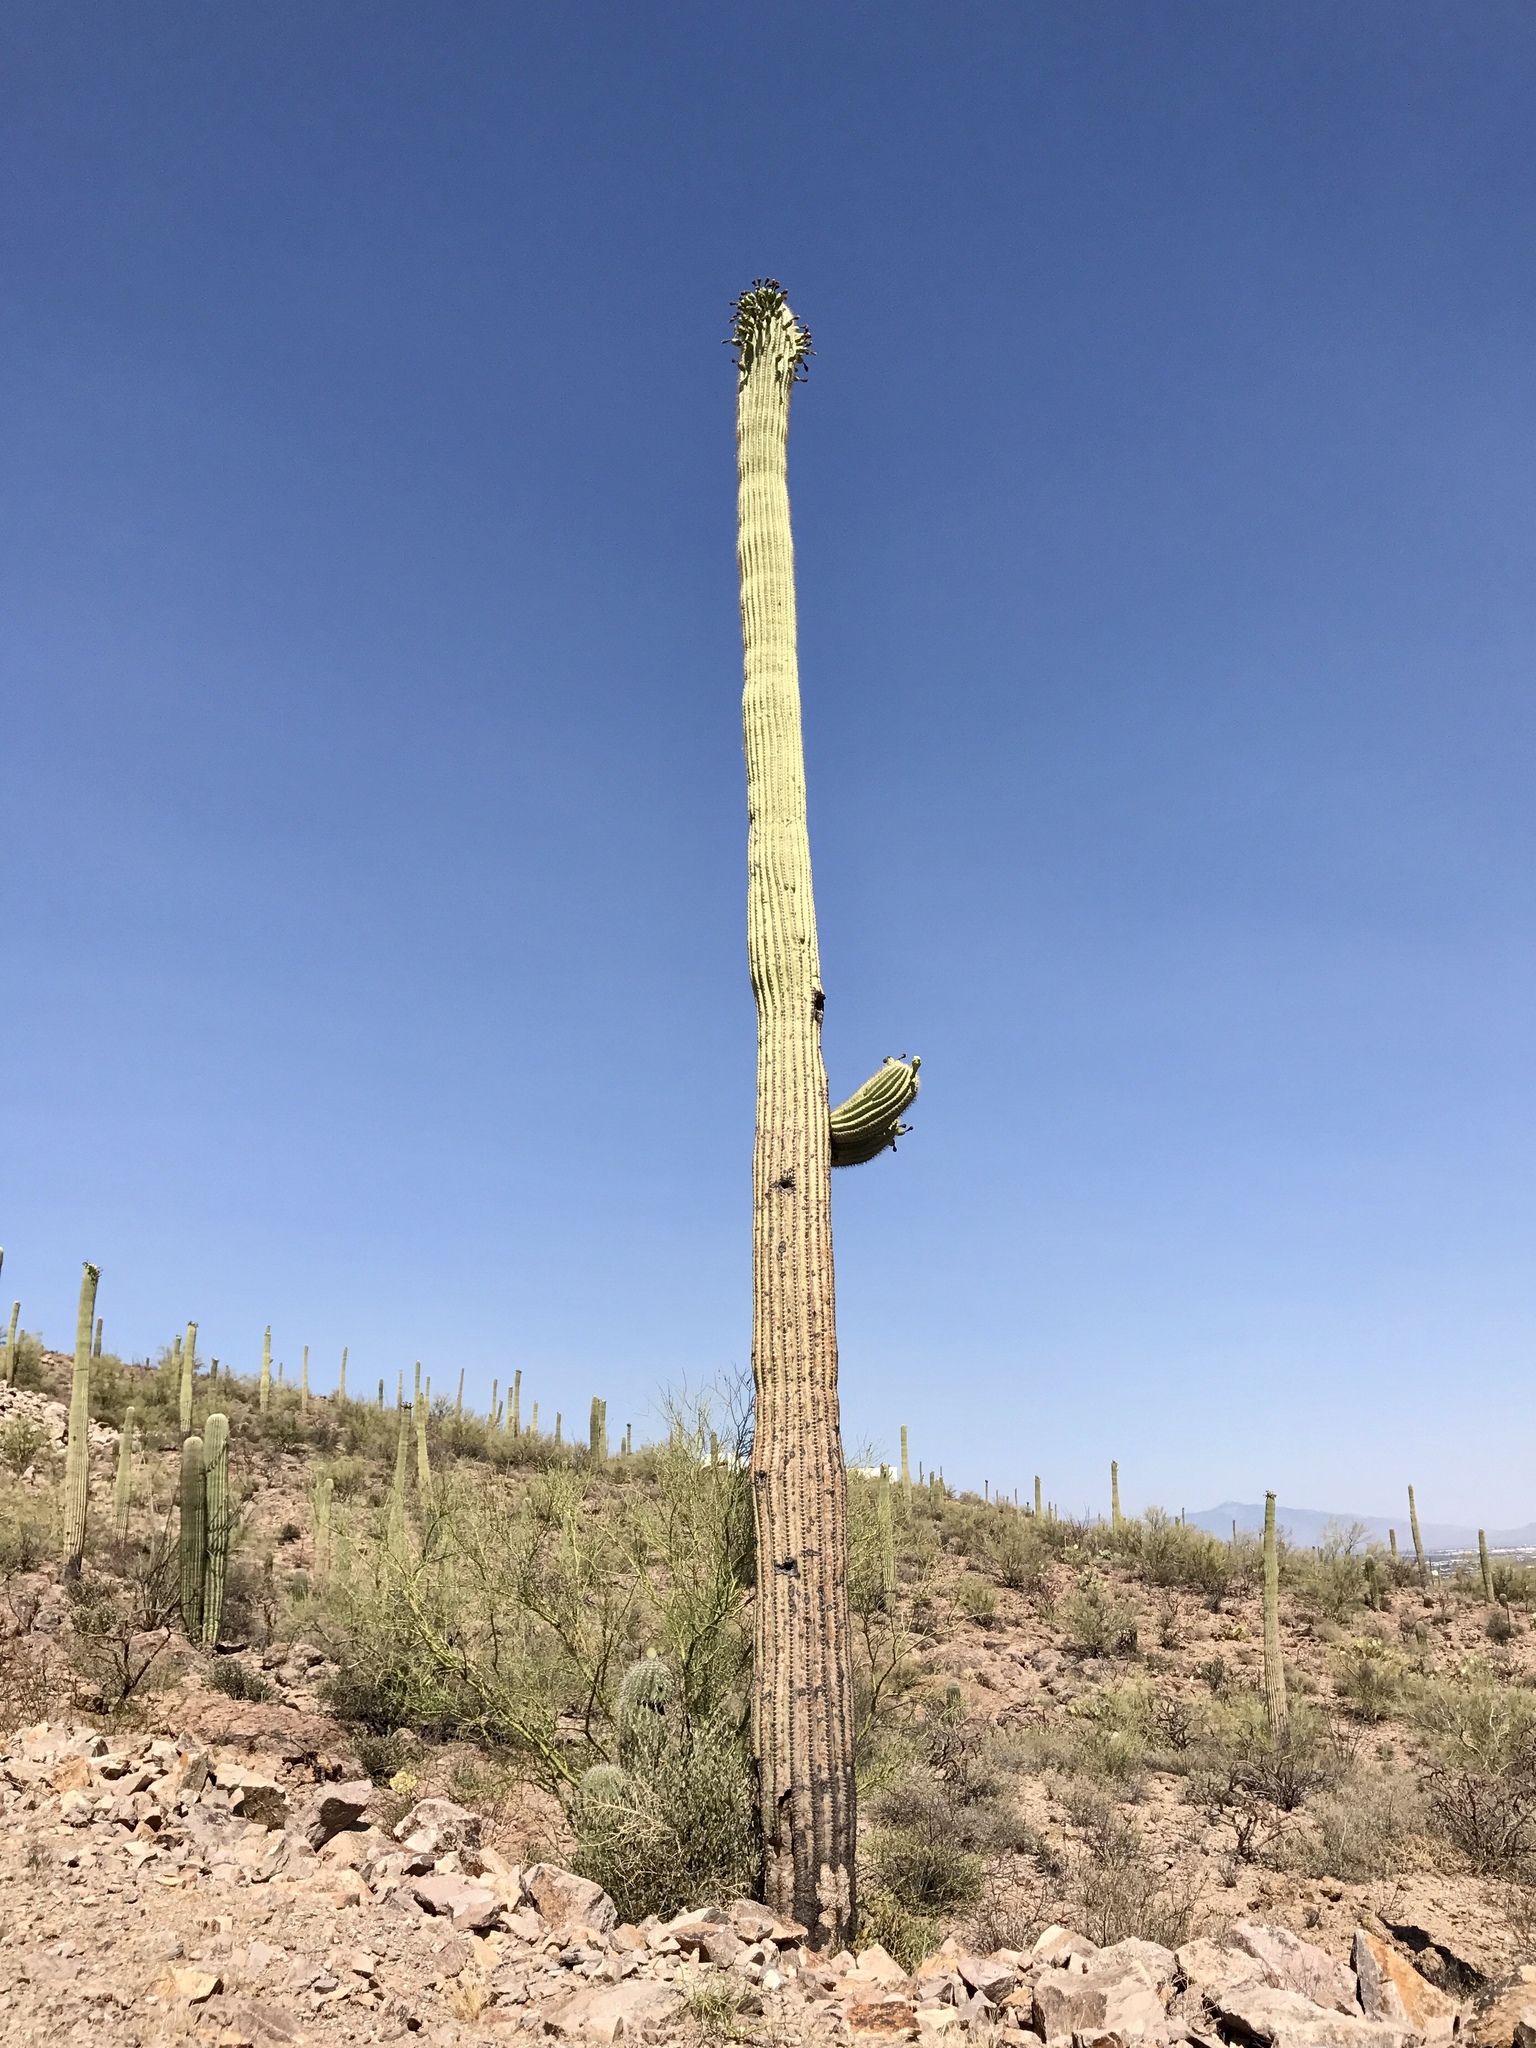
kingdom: Plantae
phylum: Tracheophyta
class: Magnoliopsida
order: Caryophyllales
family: Cactaceae
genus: Carnegiea
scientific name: Carnegiea gigantea
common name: Saguaro
